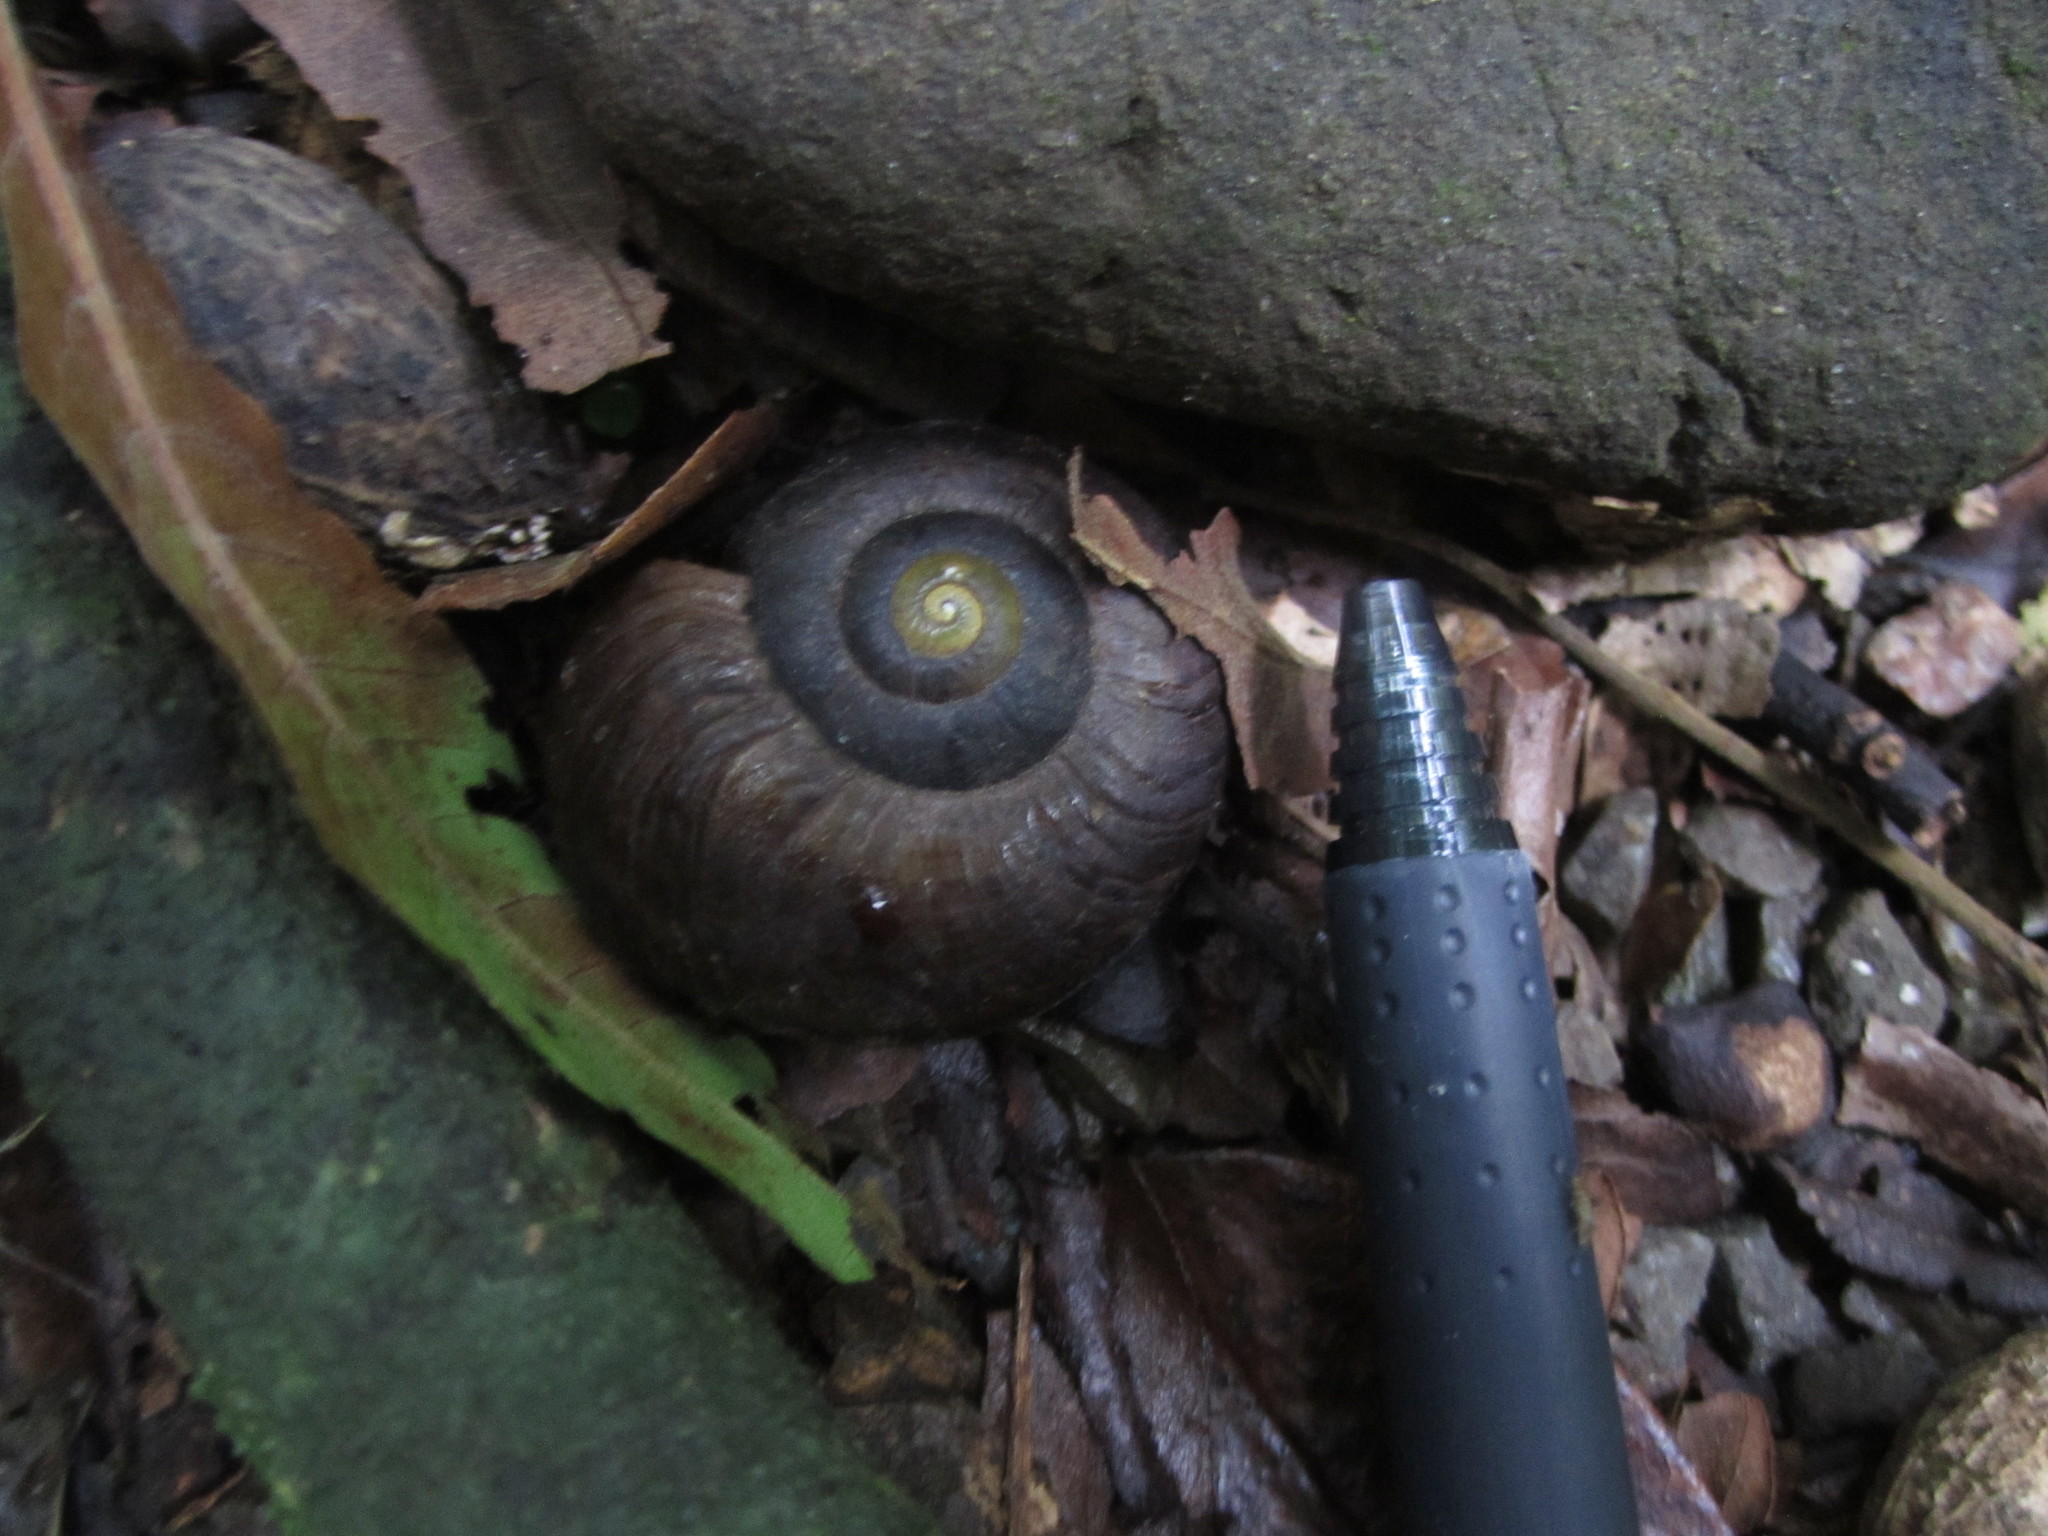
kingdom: Animalia
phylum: Mollusca
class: Gastropoda
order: Stylommatophora
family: Rhytididae
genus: Powelliphanta
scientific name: Powelliphanta traversi
